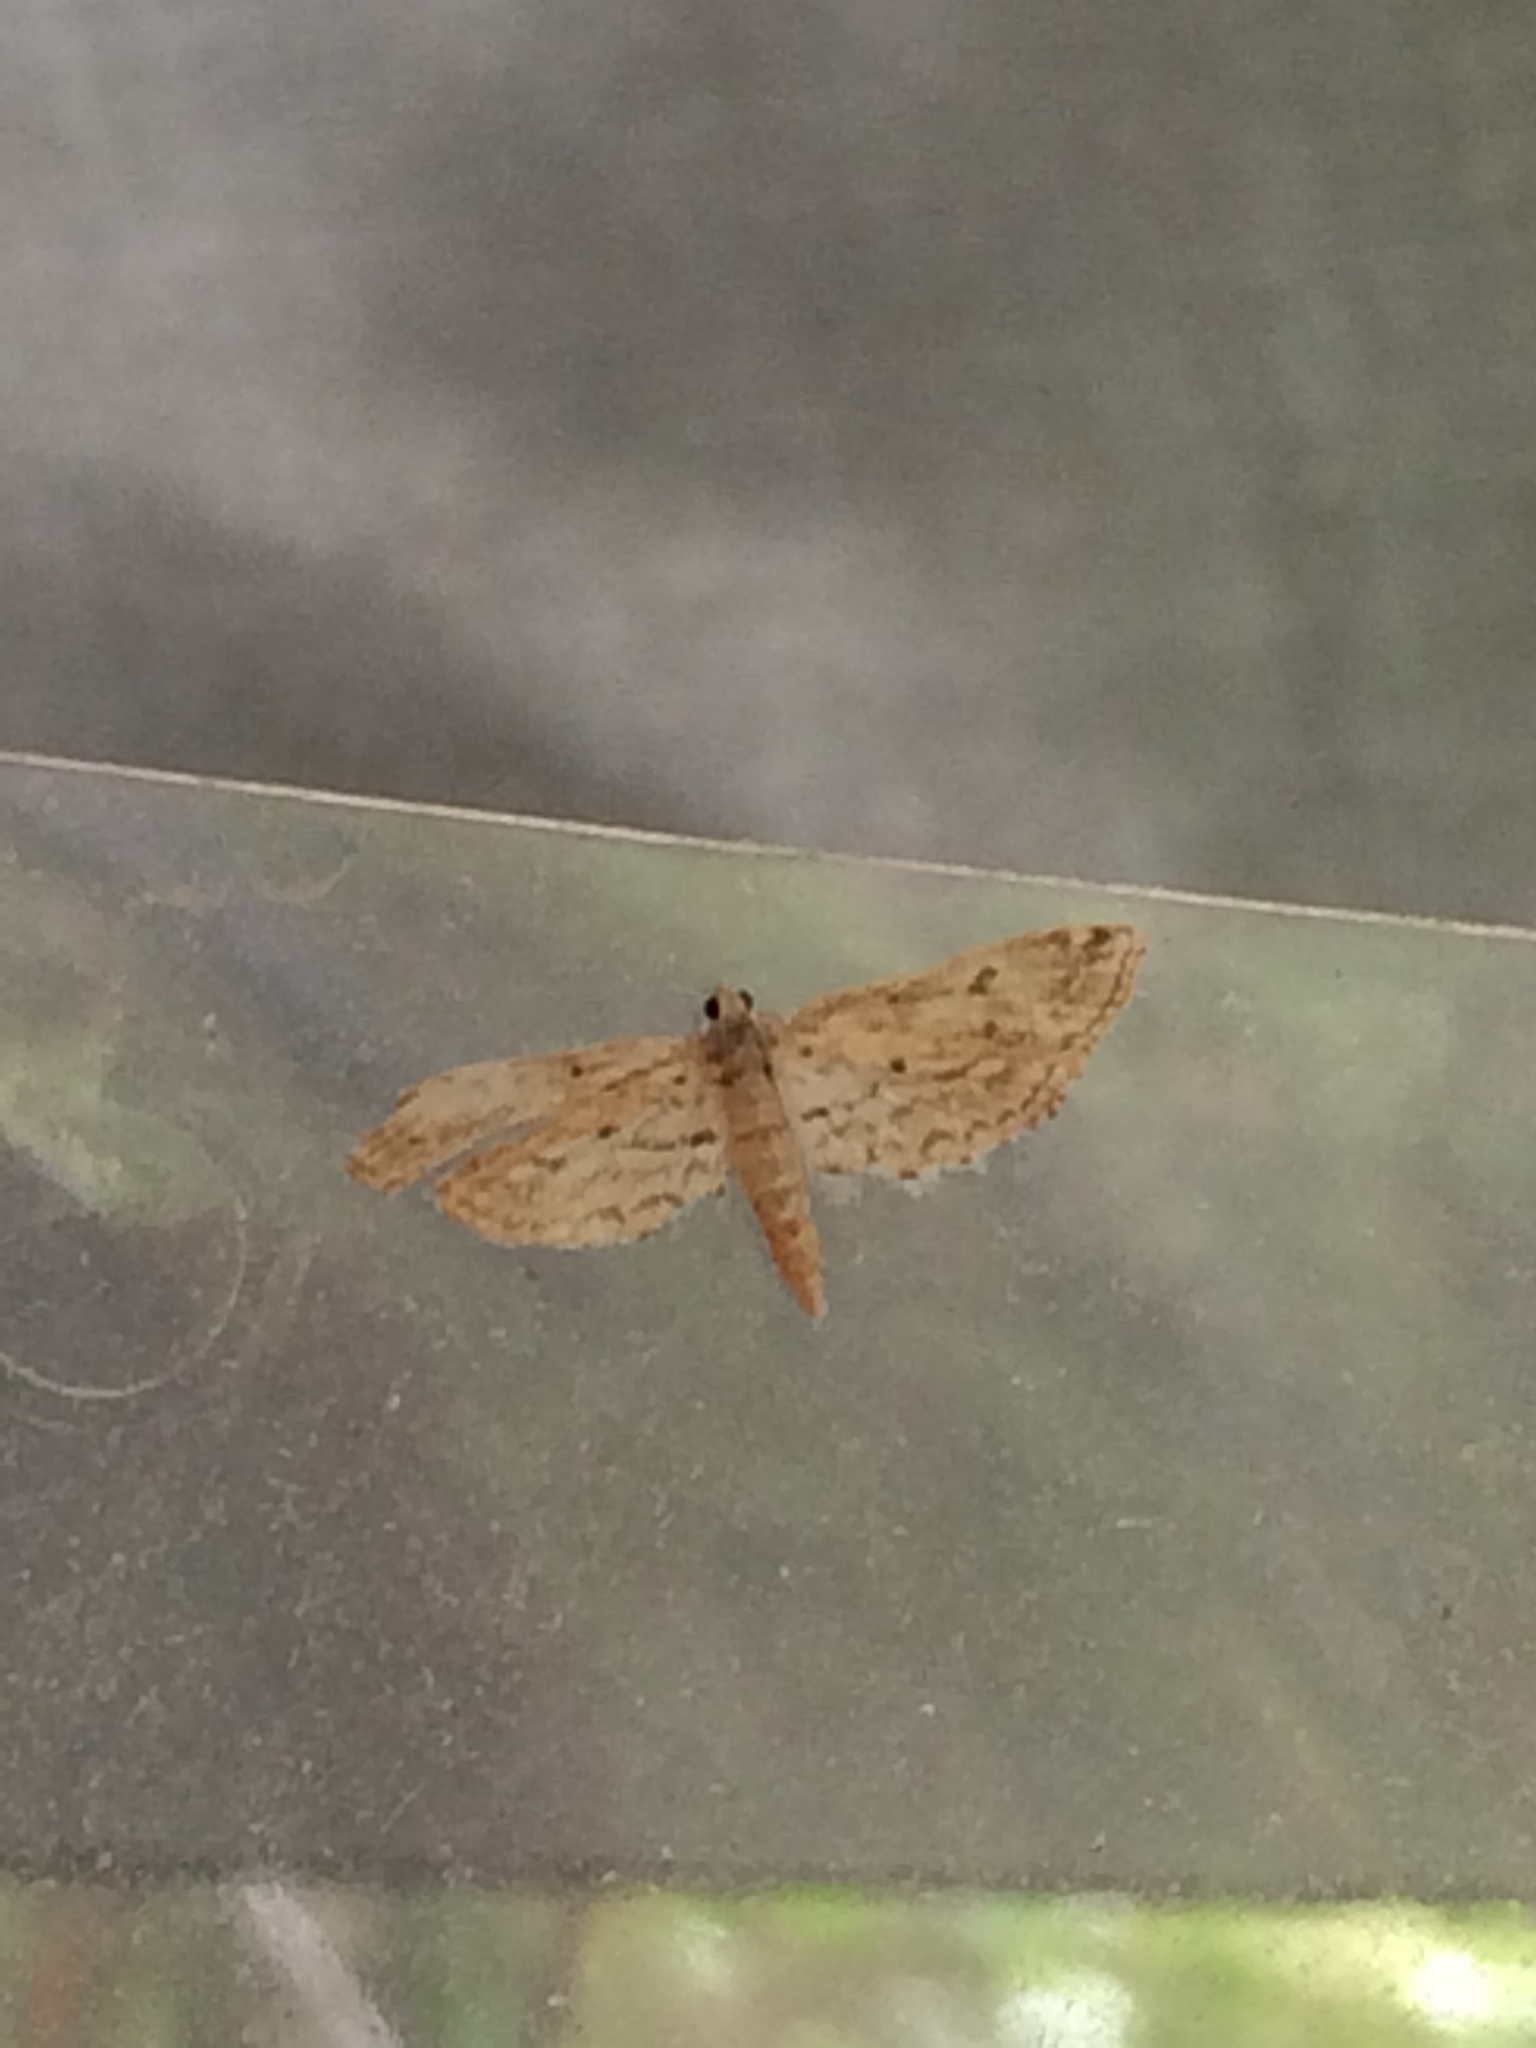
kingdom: Animalia
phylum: Arthropoda
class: Insecta
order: Lepidoptera
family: Crambidae
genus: Parapoynx
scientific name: Parapoynx allionealis
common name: Bladderwort casemaker
